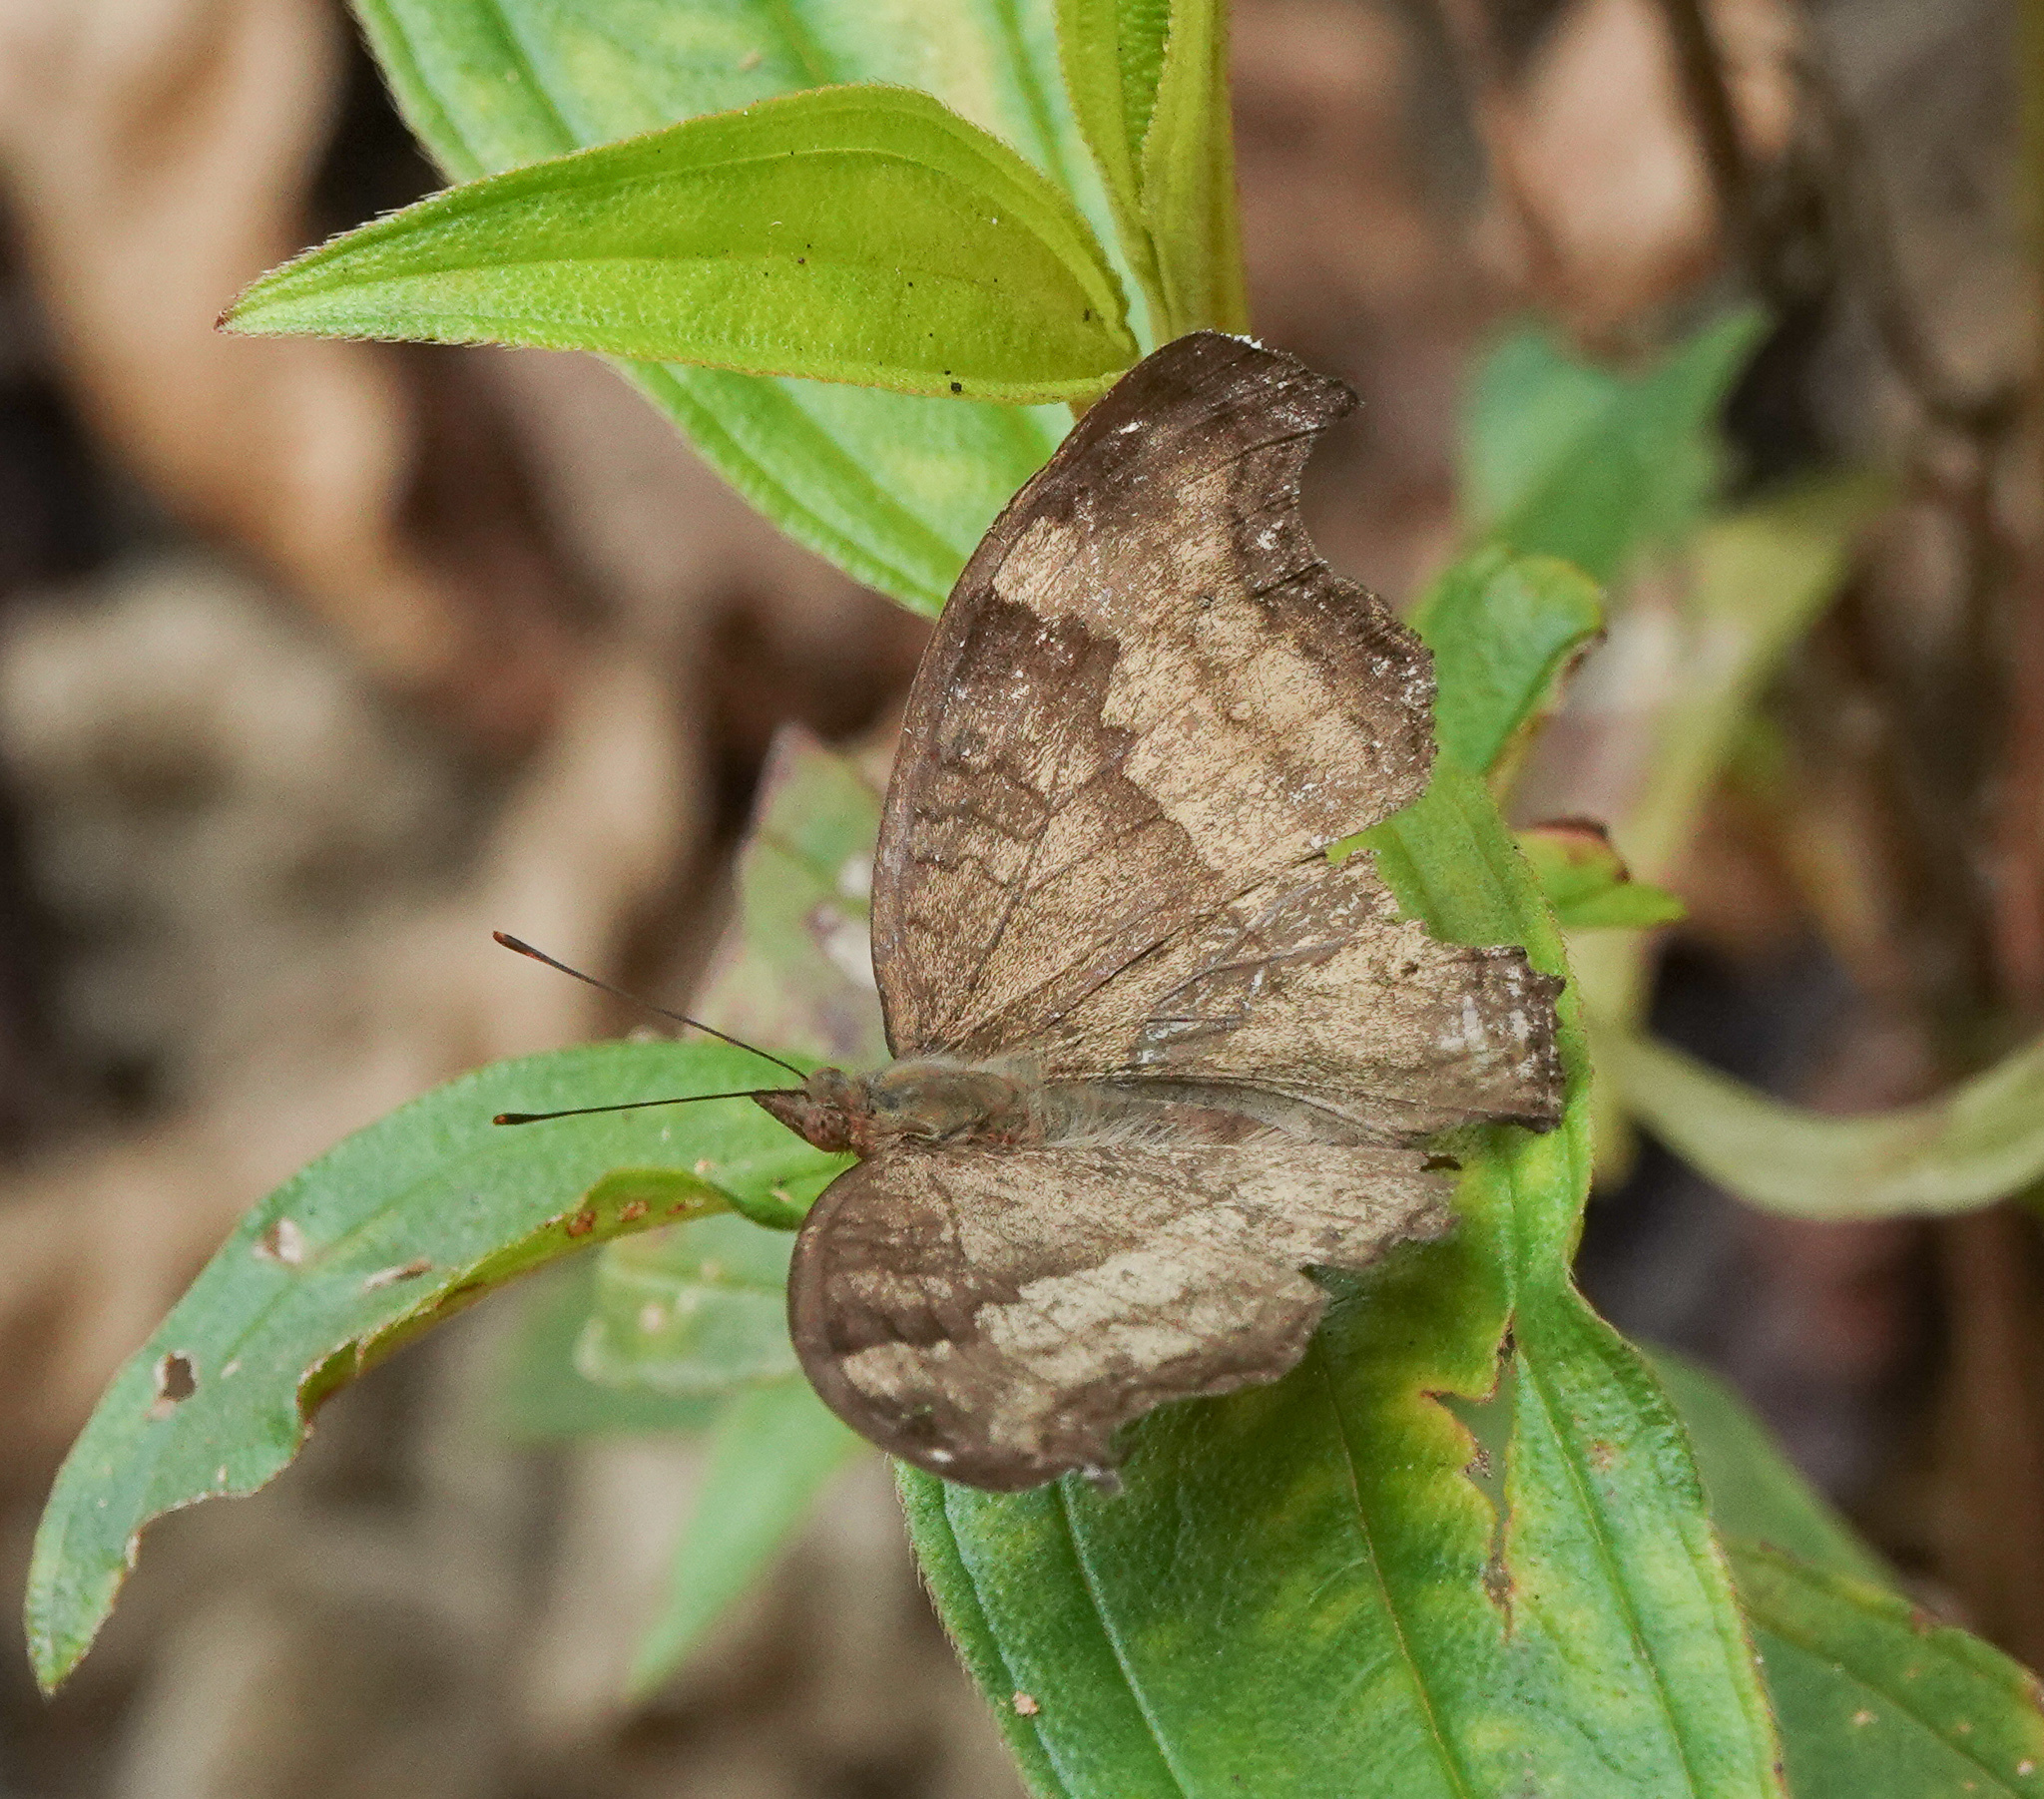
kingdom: Animalia
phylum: Arthropoda
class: Insecta
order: Lepidoptera
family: Nymphalidae
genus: Junonia
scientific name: Junonia iphita
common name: Chocolate pansy
